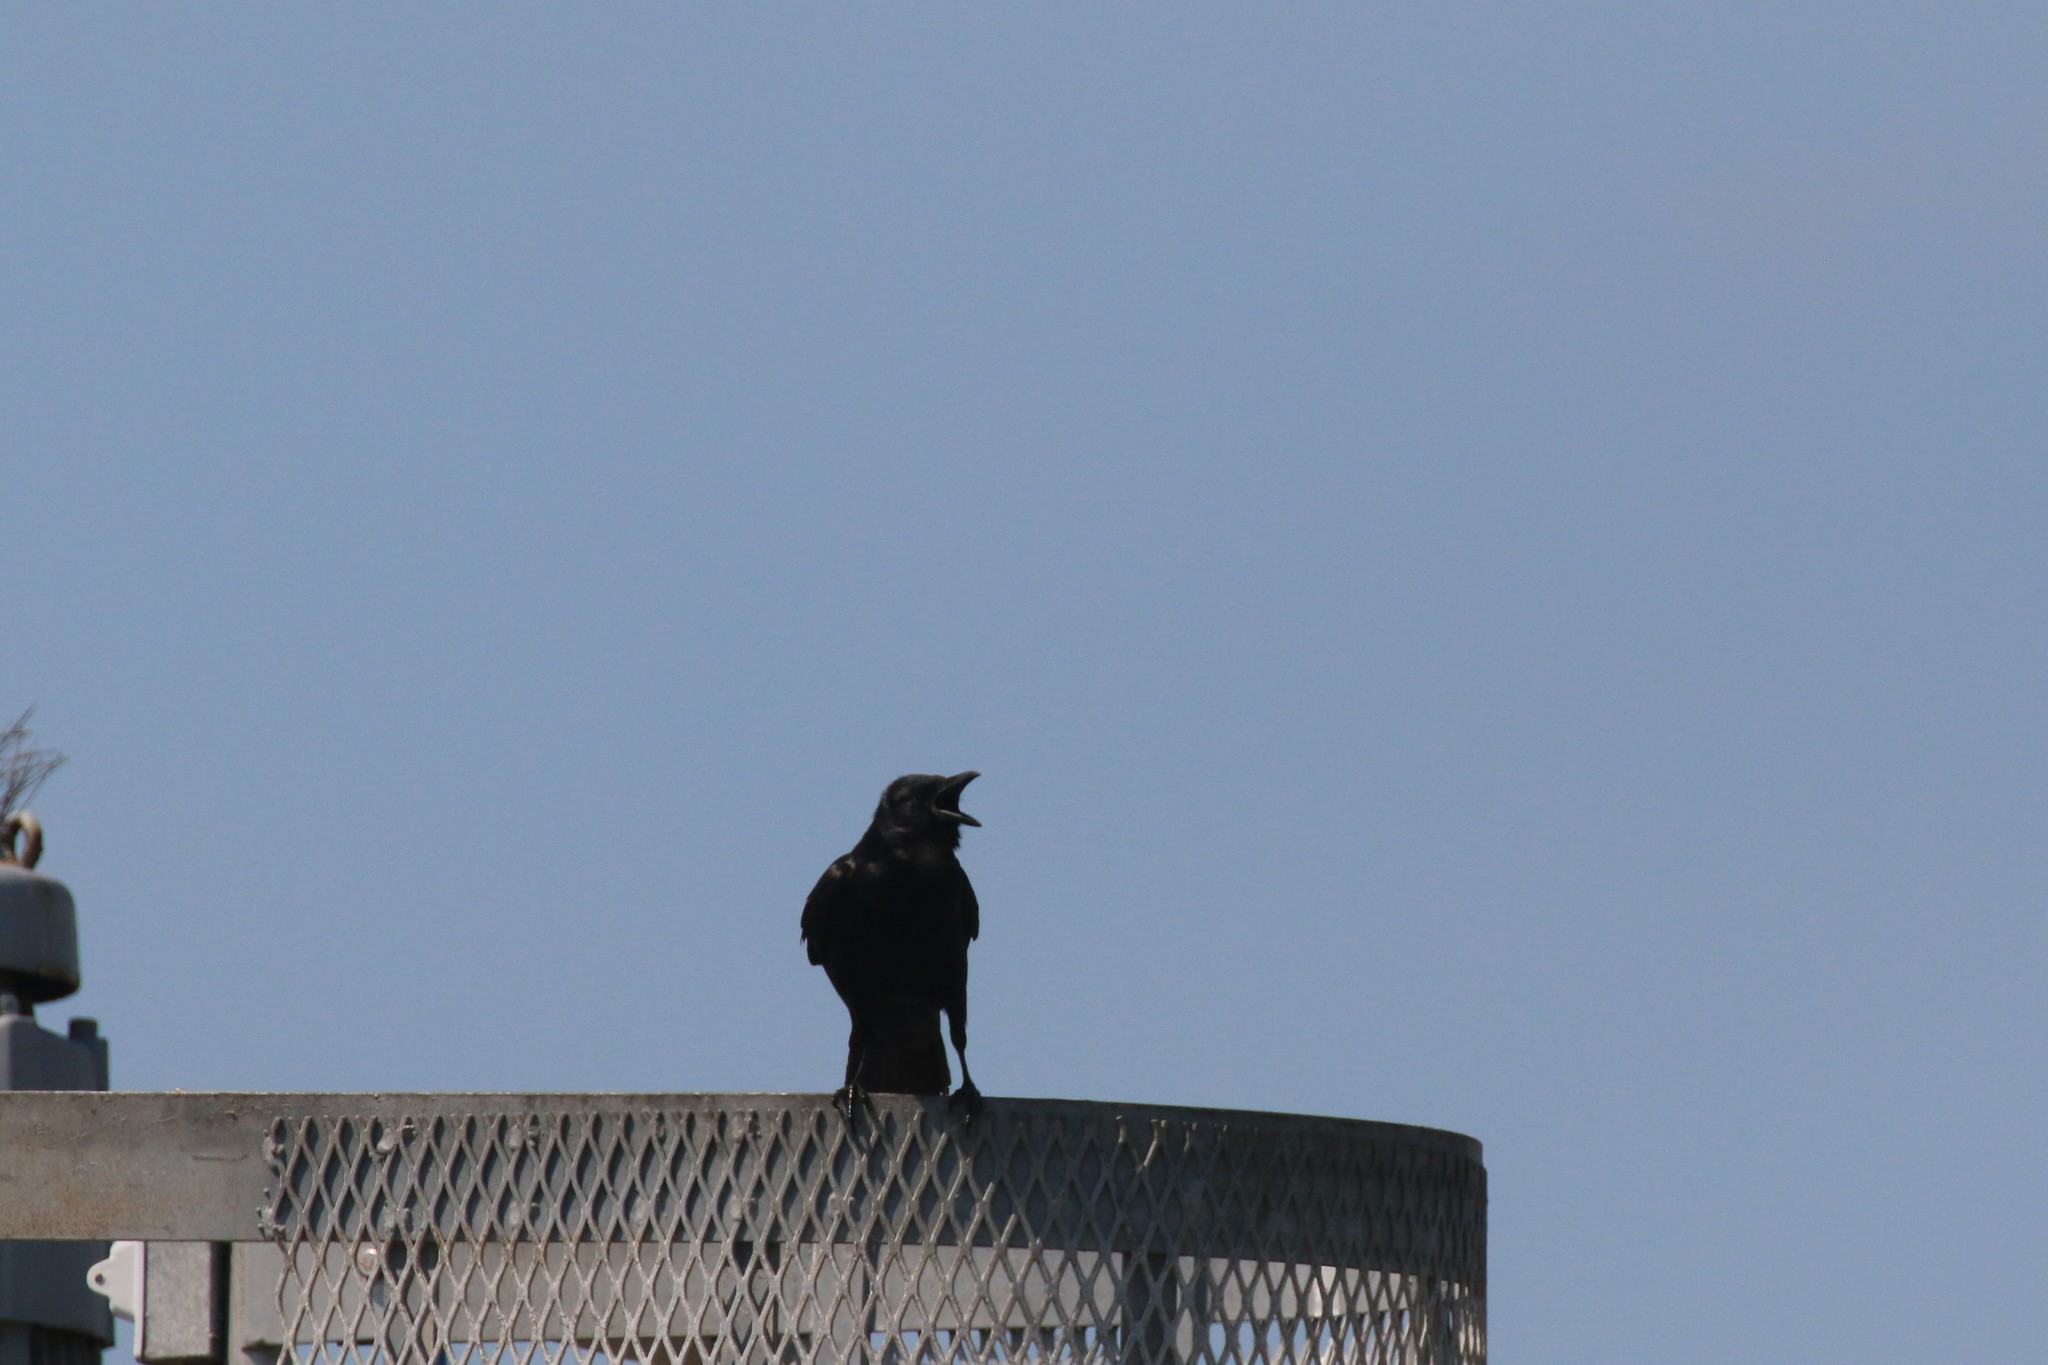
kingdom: Animalia
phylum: Chordata
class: Aves
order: Passeriformes
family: Corvidae
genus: Corvus
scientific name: Corvus
